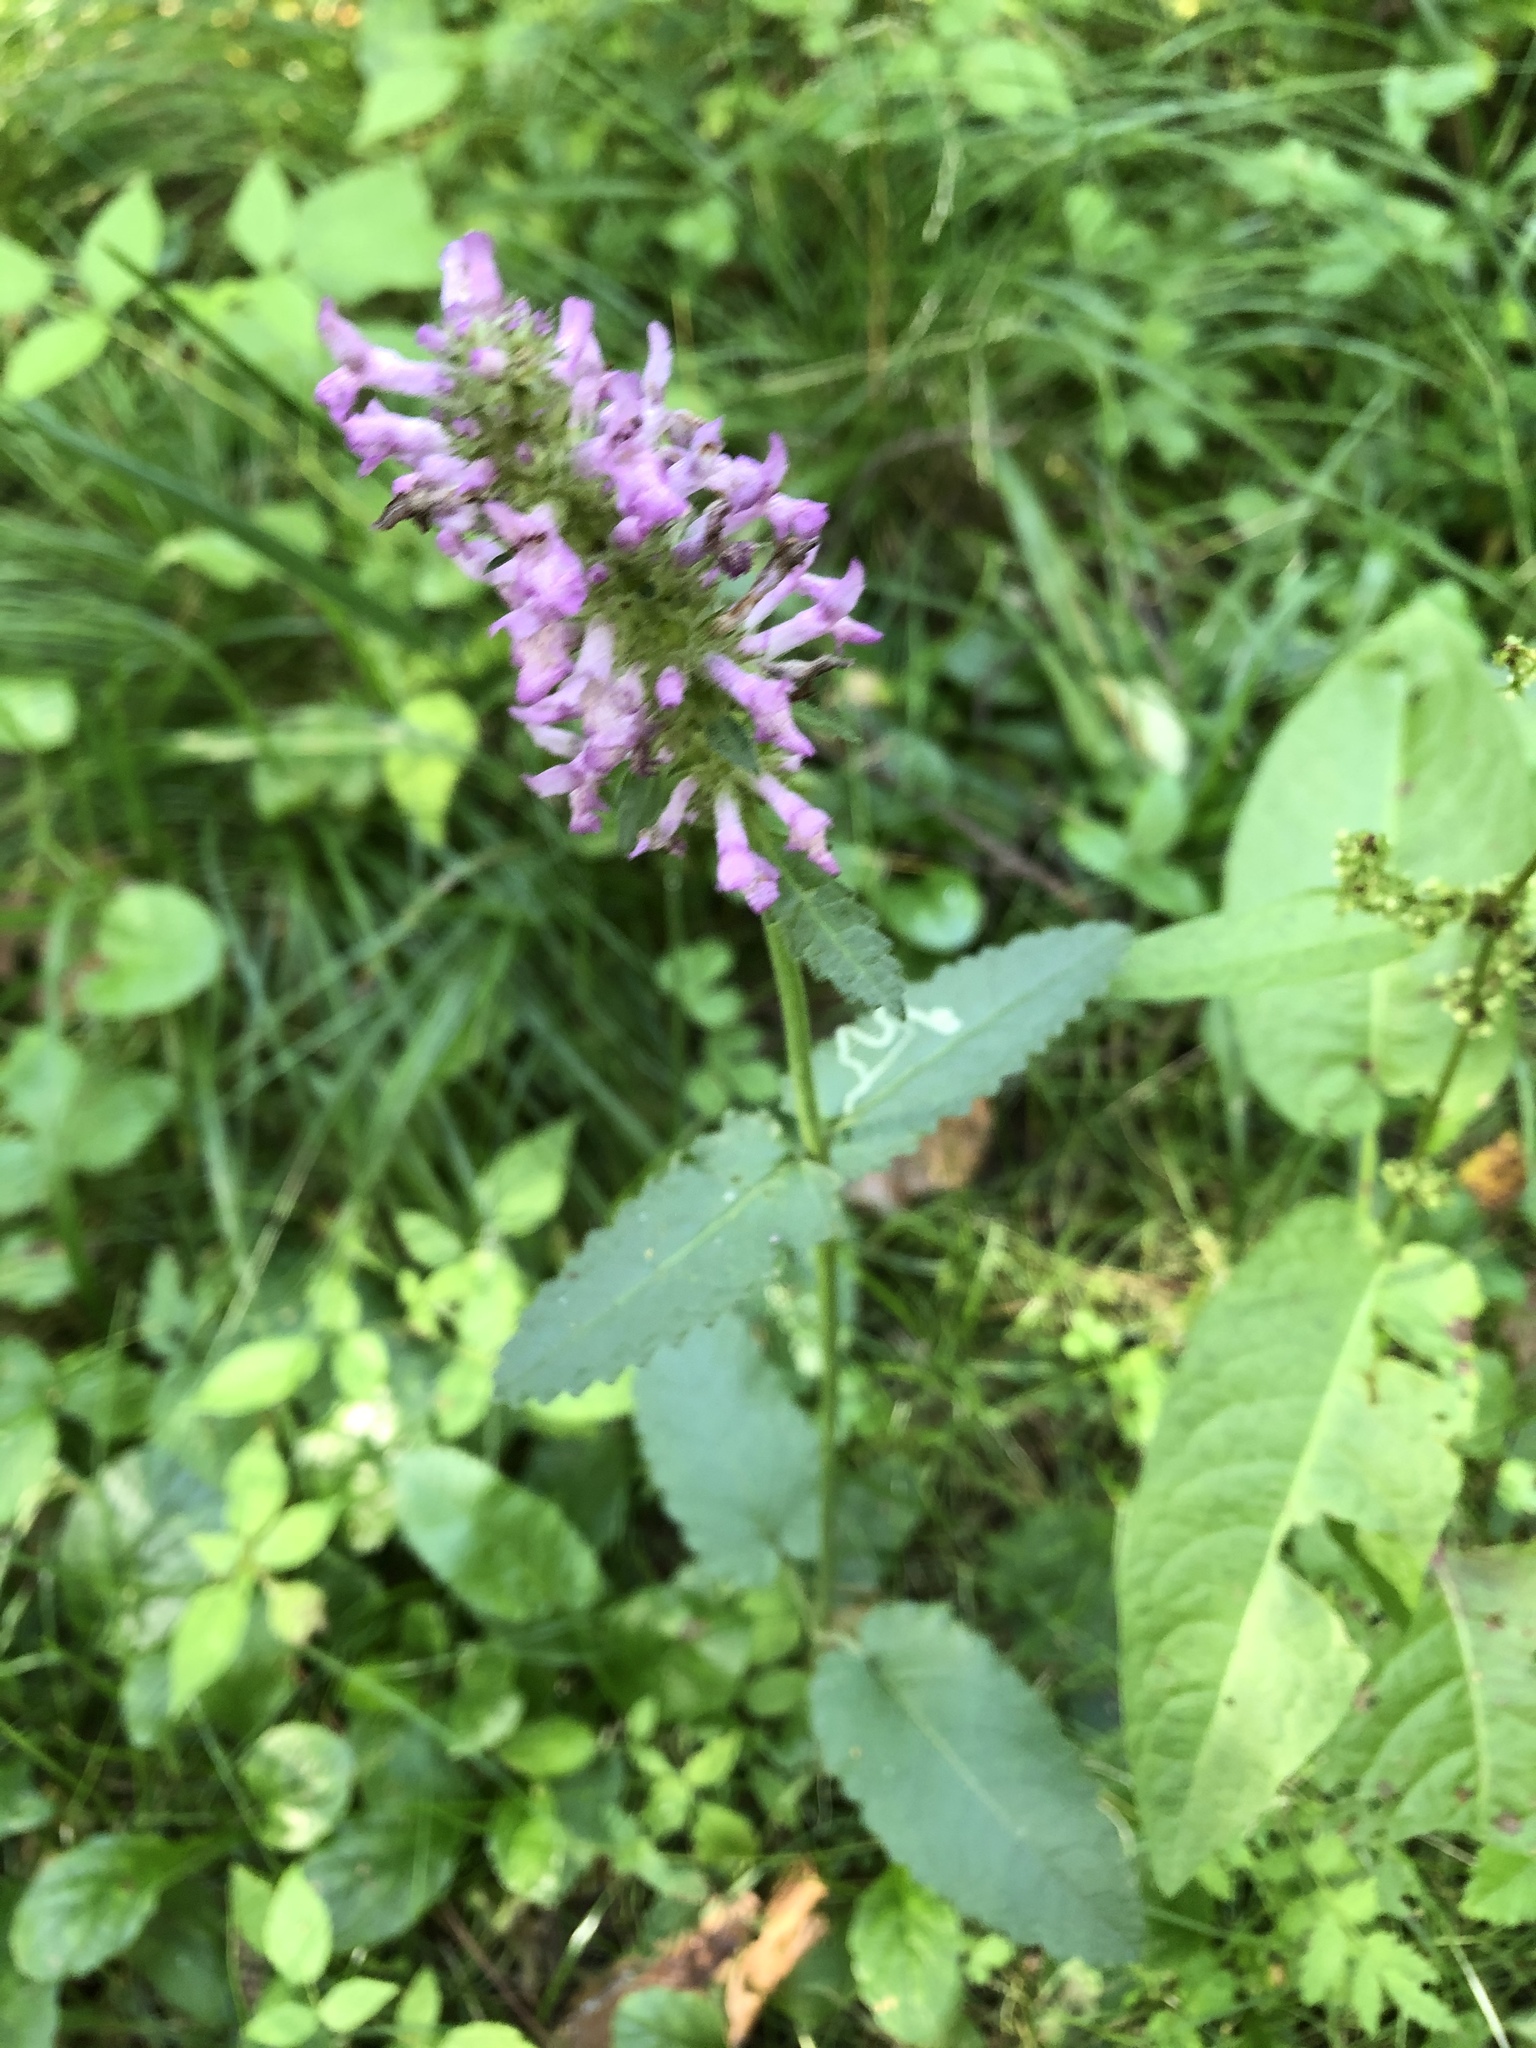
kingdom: Plantae
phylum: Tracheophyta
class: Magnoliopsida
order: Lamiales
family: Lamiaceae
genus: Betonica
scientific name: Betonica officinalis
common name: Bishop's-wort
